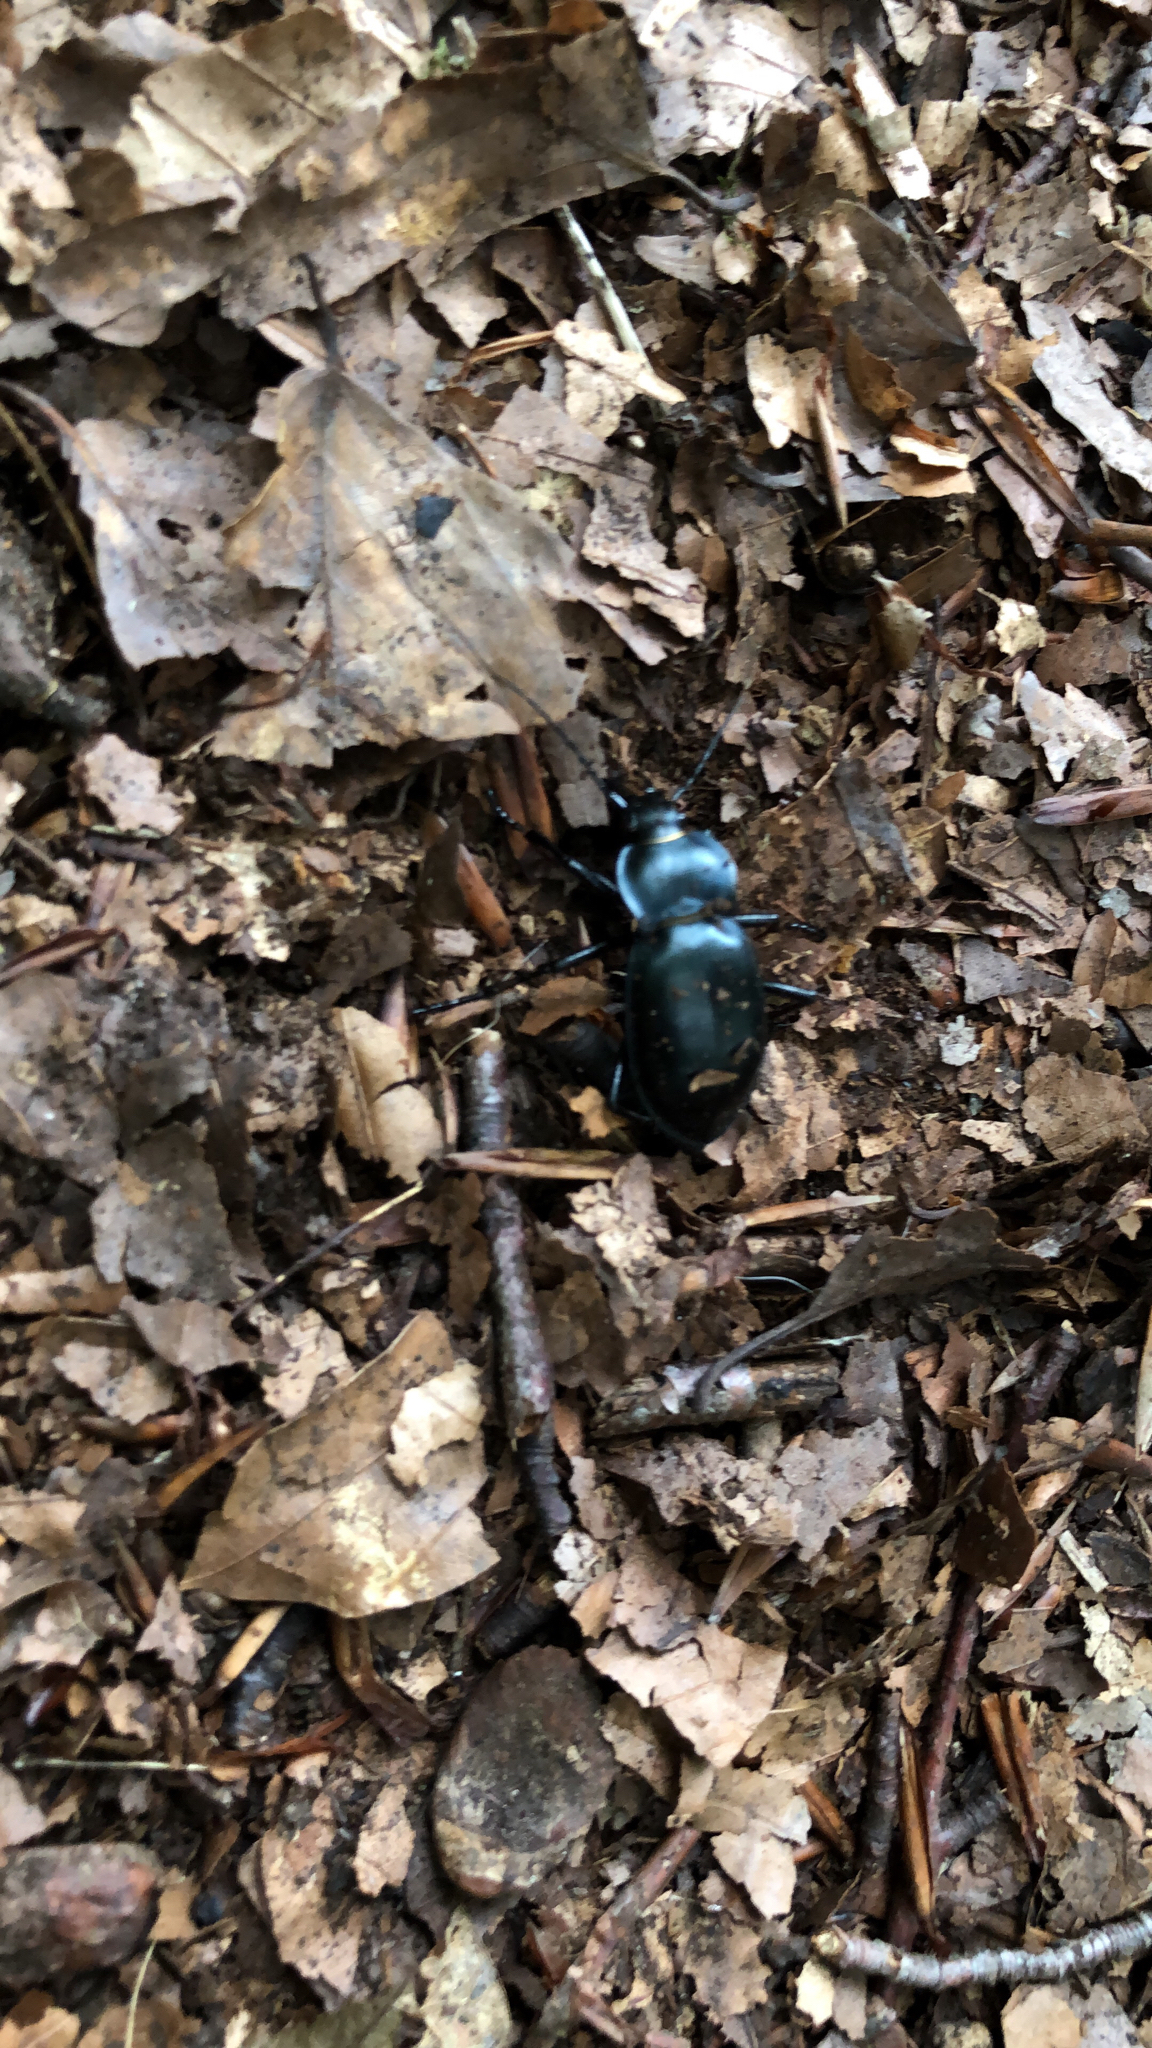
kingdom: Animalia
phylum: Arthropoda
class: Insecta
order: Coleoptera
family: Carabidae
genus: Carabus
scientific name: Carabus glabratus
